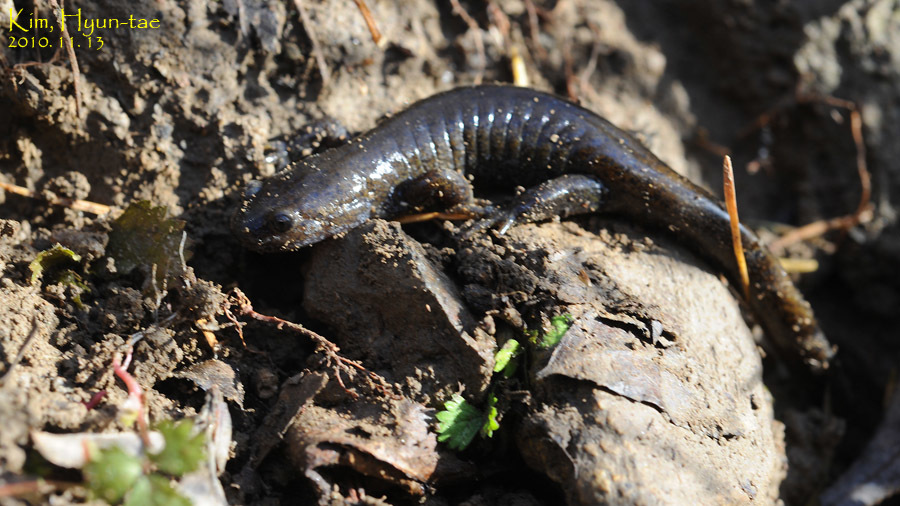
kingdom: Animalia
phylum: Chordata
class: Amphibia
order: Caudata
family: Hynobiidae
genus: Hynobius
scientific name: Hynobius leechii
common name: Gensan salamander
